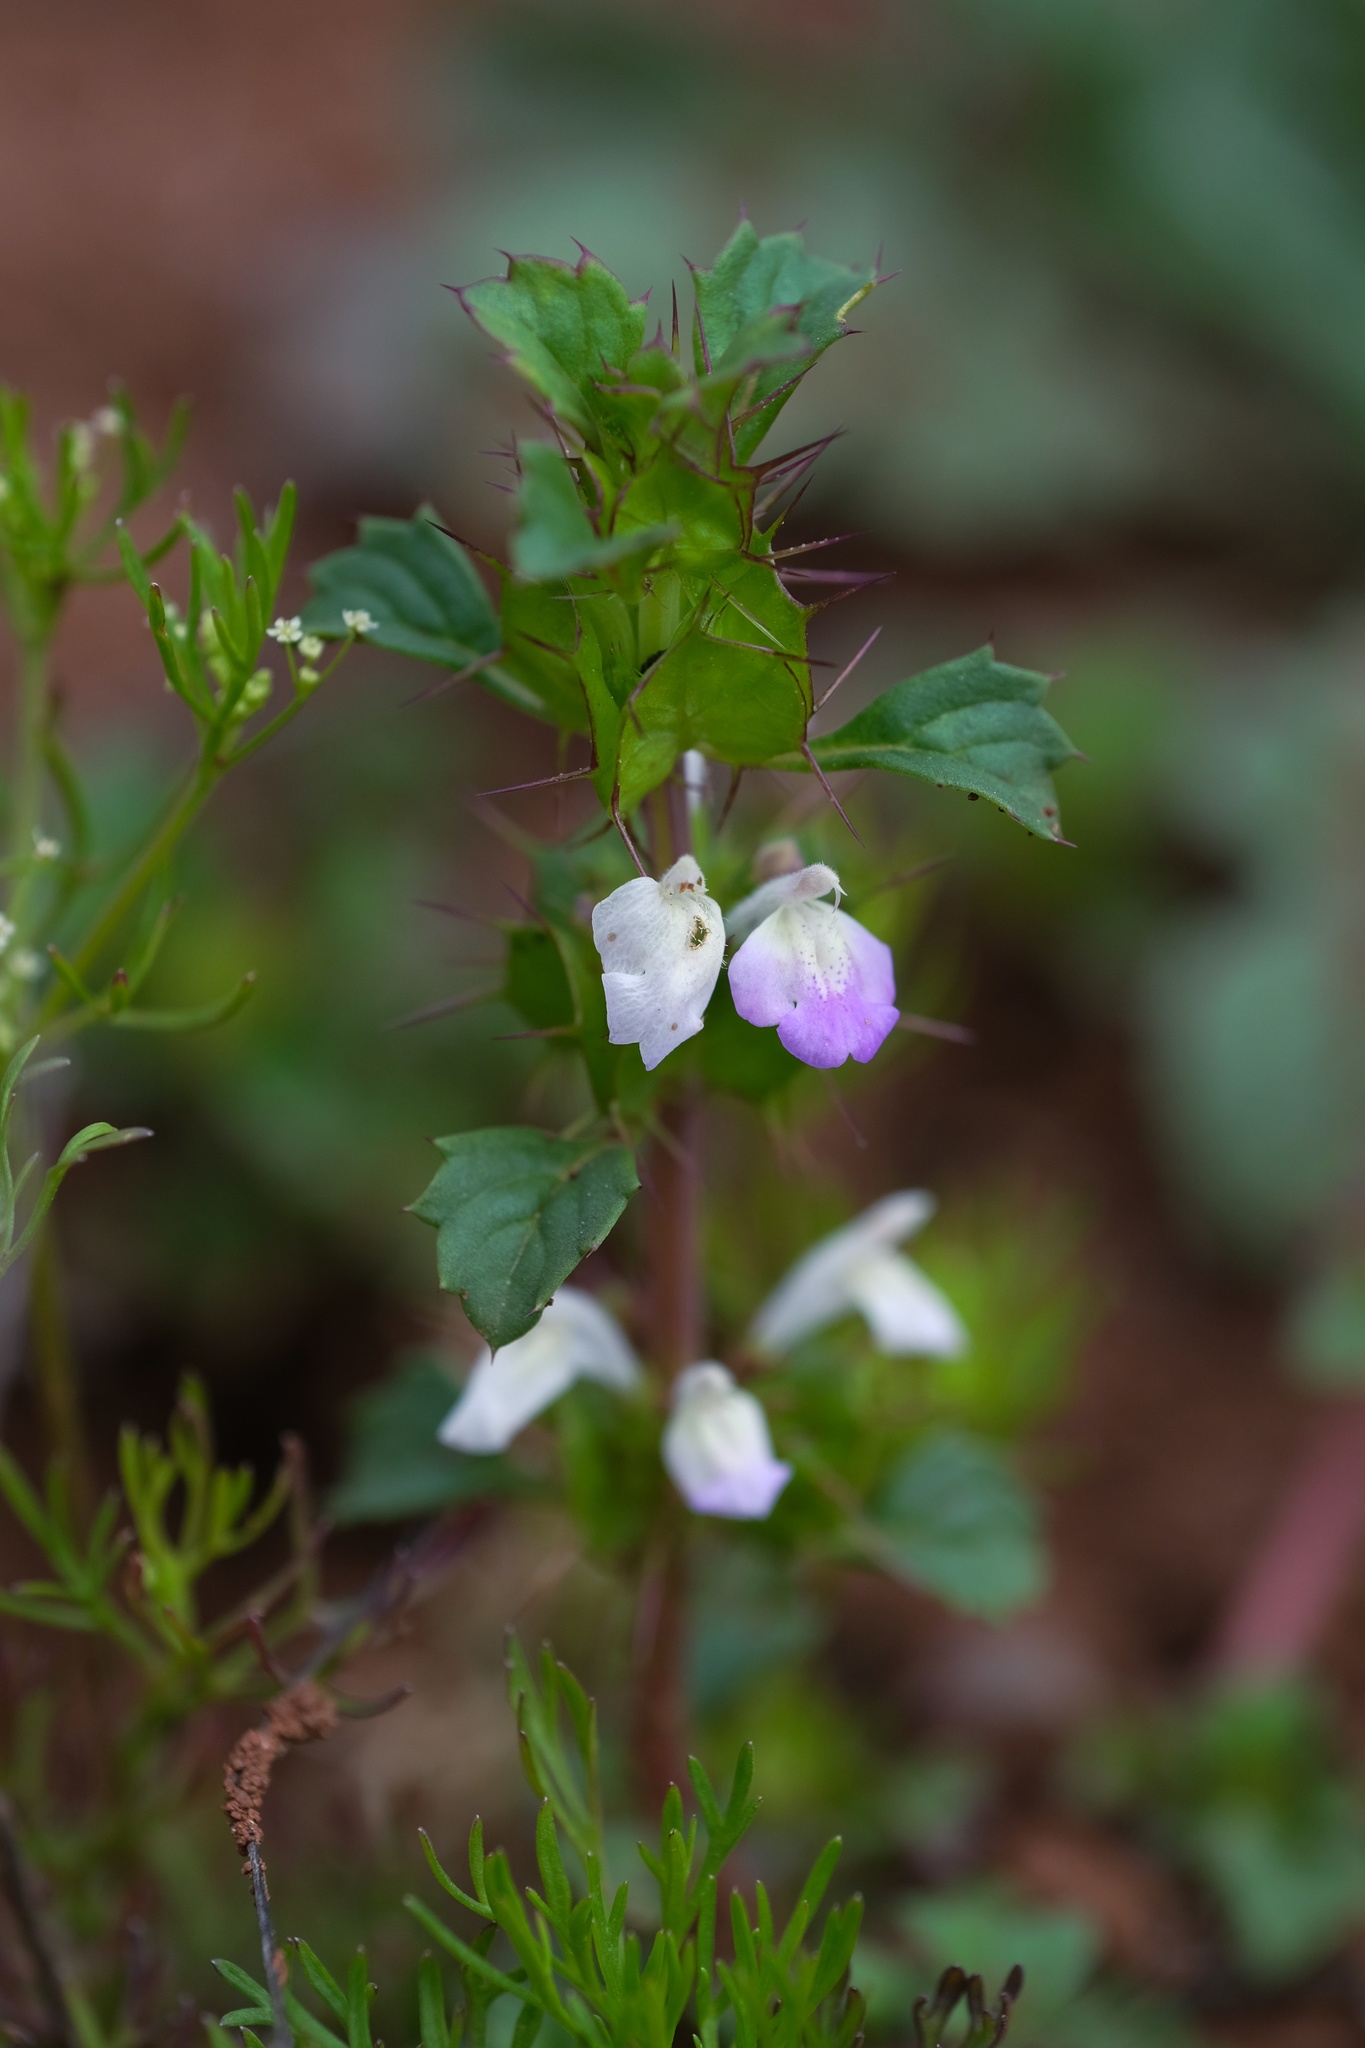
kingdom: Plantae
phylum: Tracheophyta
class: Magnoliopsida
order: Lamiales
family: Lamiaceae
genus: Acanthomintha
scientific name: Acanthomintha ilicifolia
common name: San diego thorn-mint
